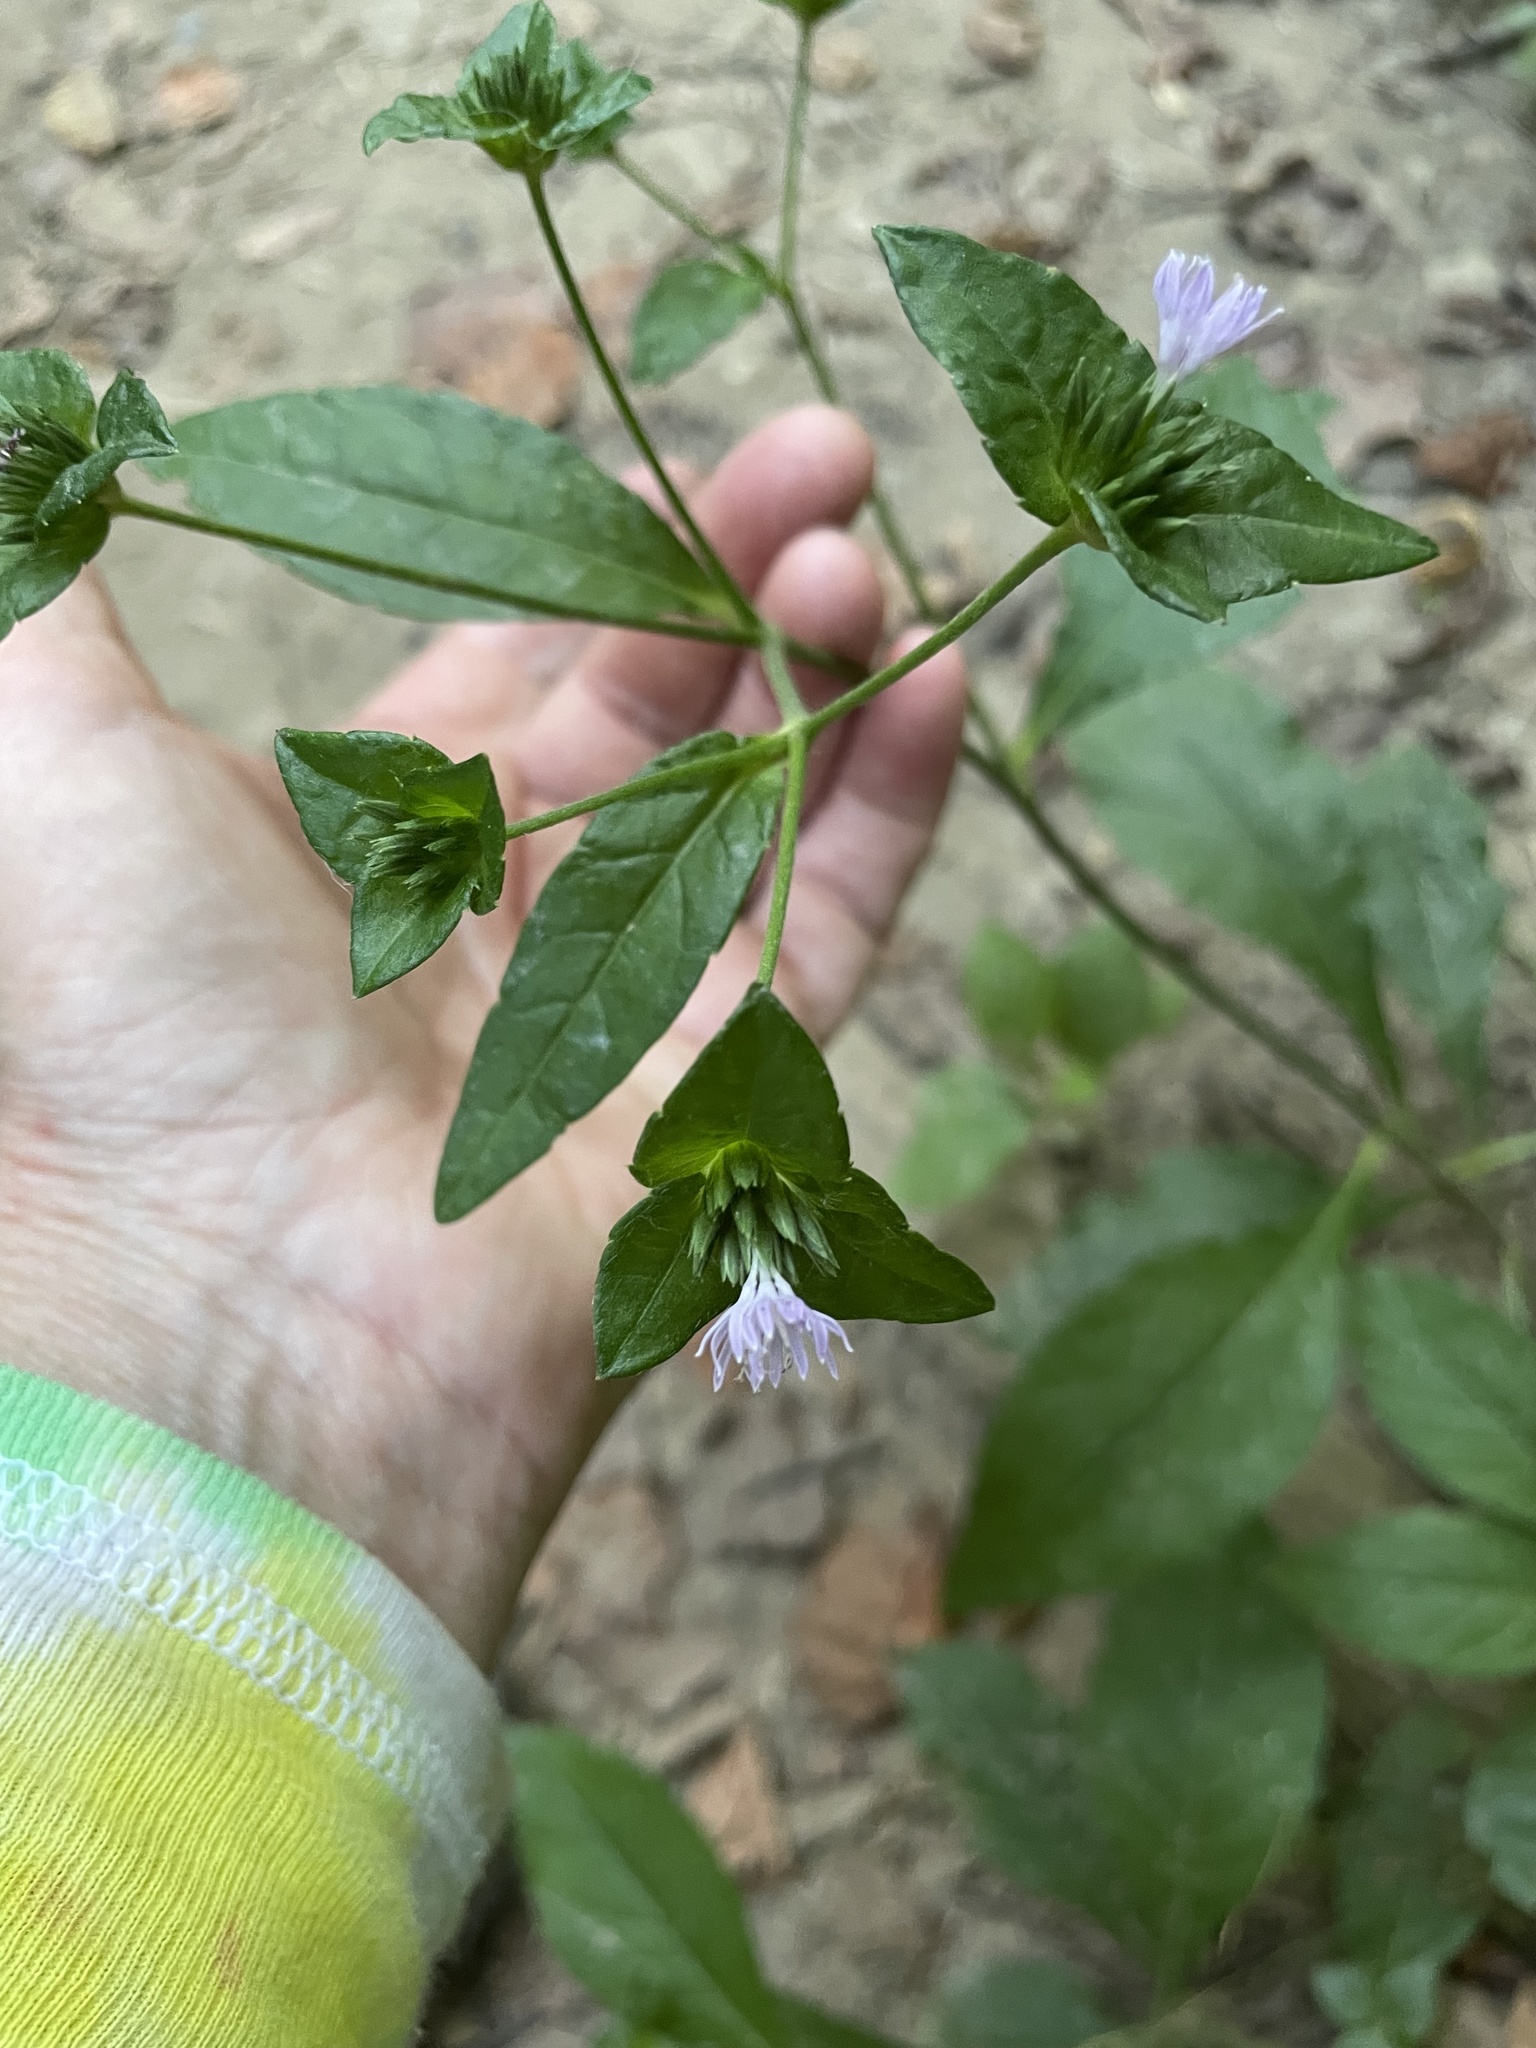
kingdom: Plantae
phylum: Tracheophyta
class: Magnoliopsida
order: Asterales
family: Asteraceae
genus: Elephantopus
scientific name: Elephantopus carolinianus
